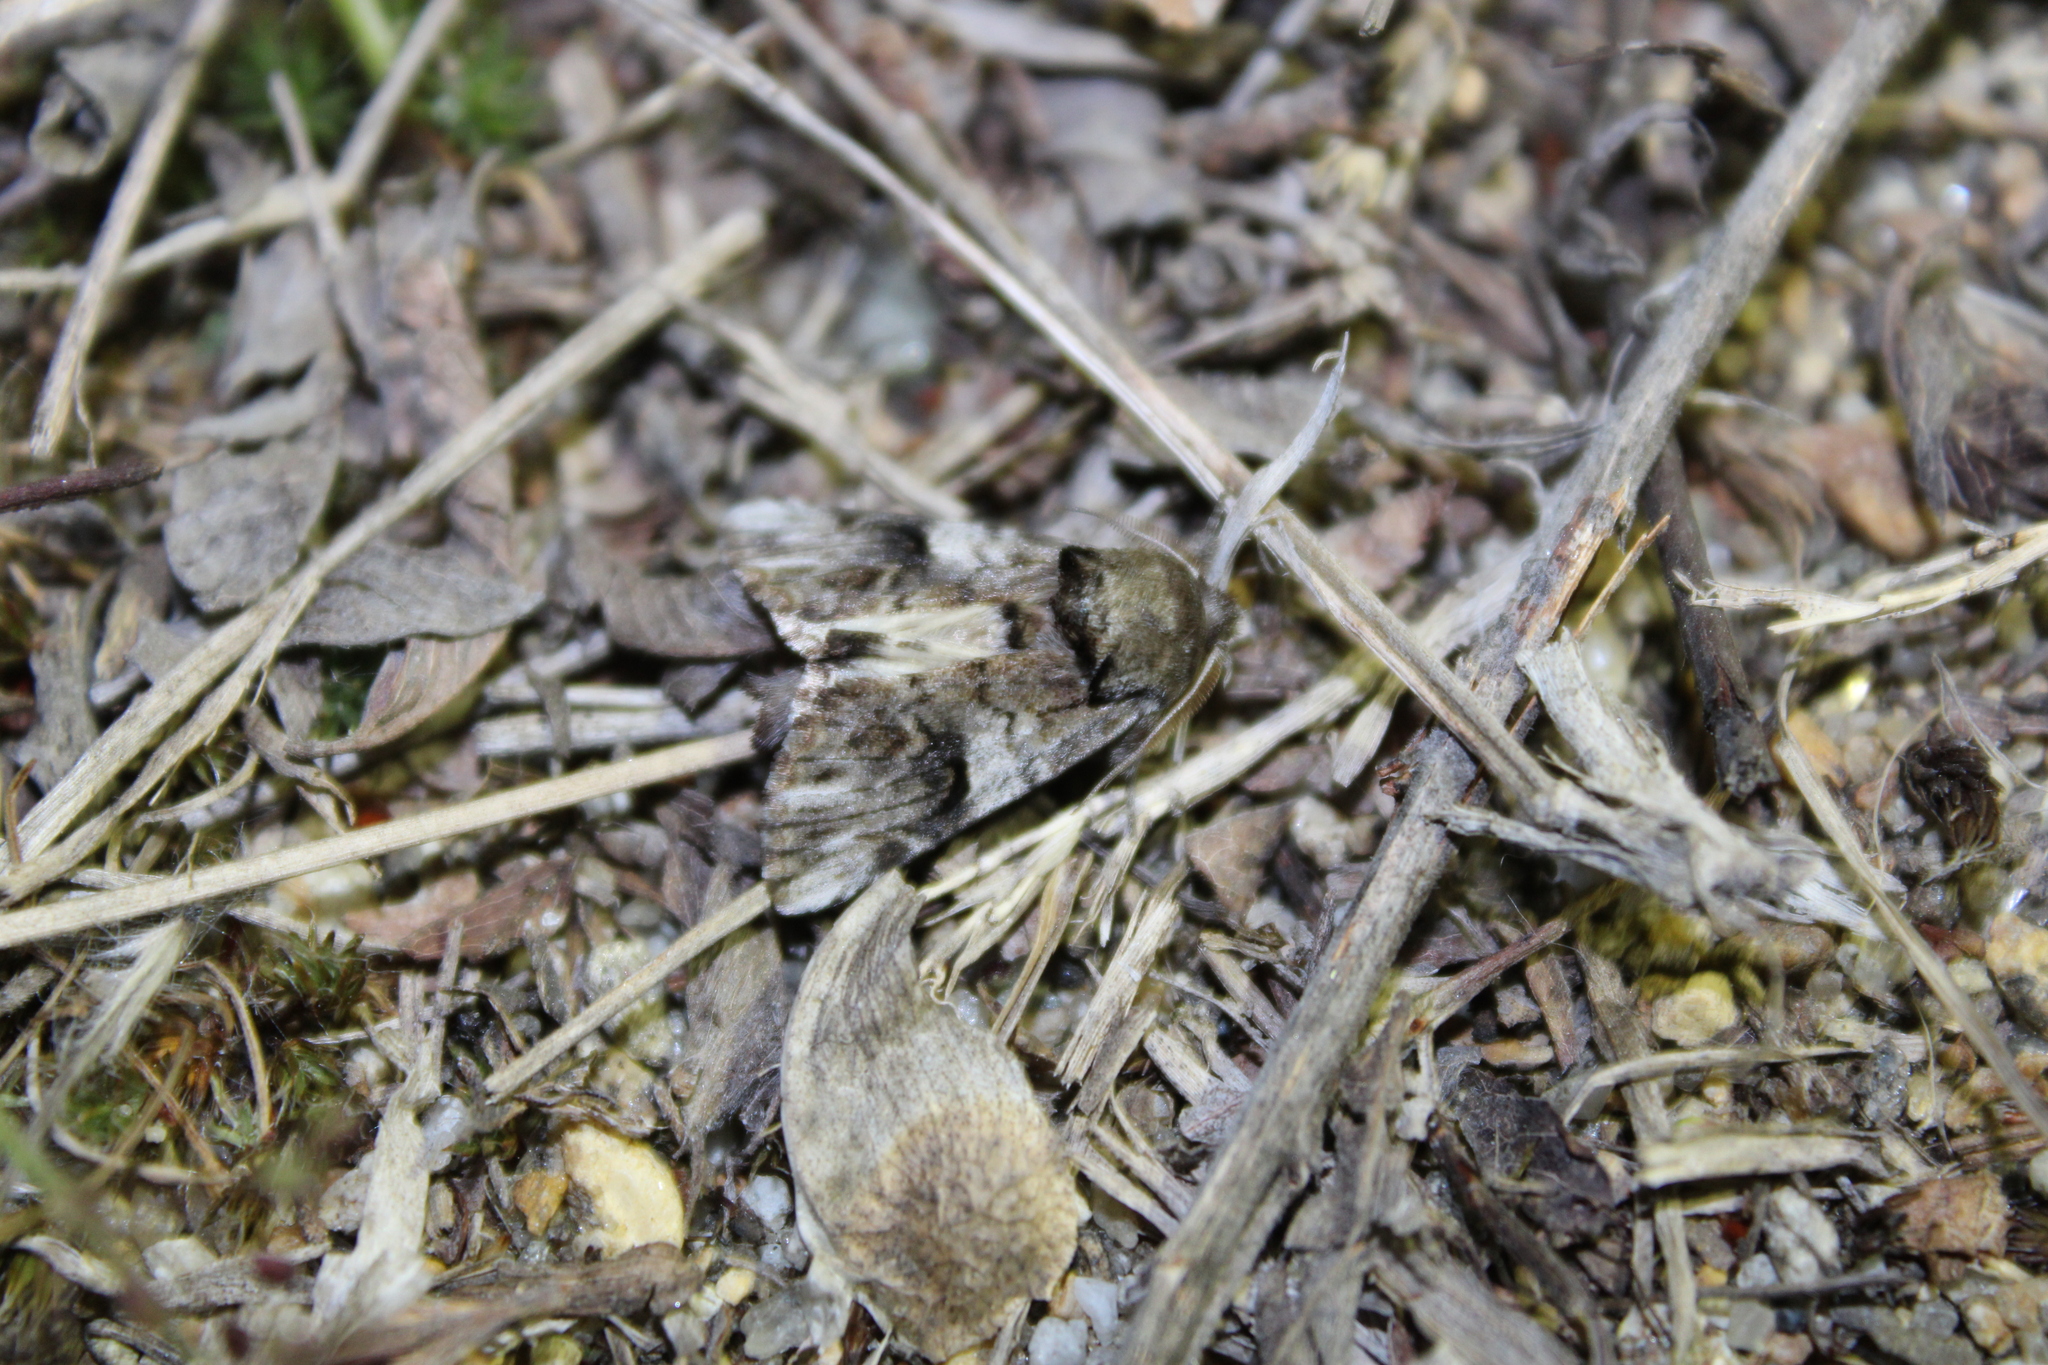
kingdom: Animalia
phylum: Arthropoda
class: Insecta
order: Lepidoptera
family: Notodontidae
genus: Schizura
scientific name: Schizura
